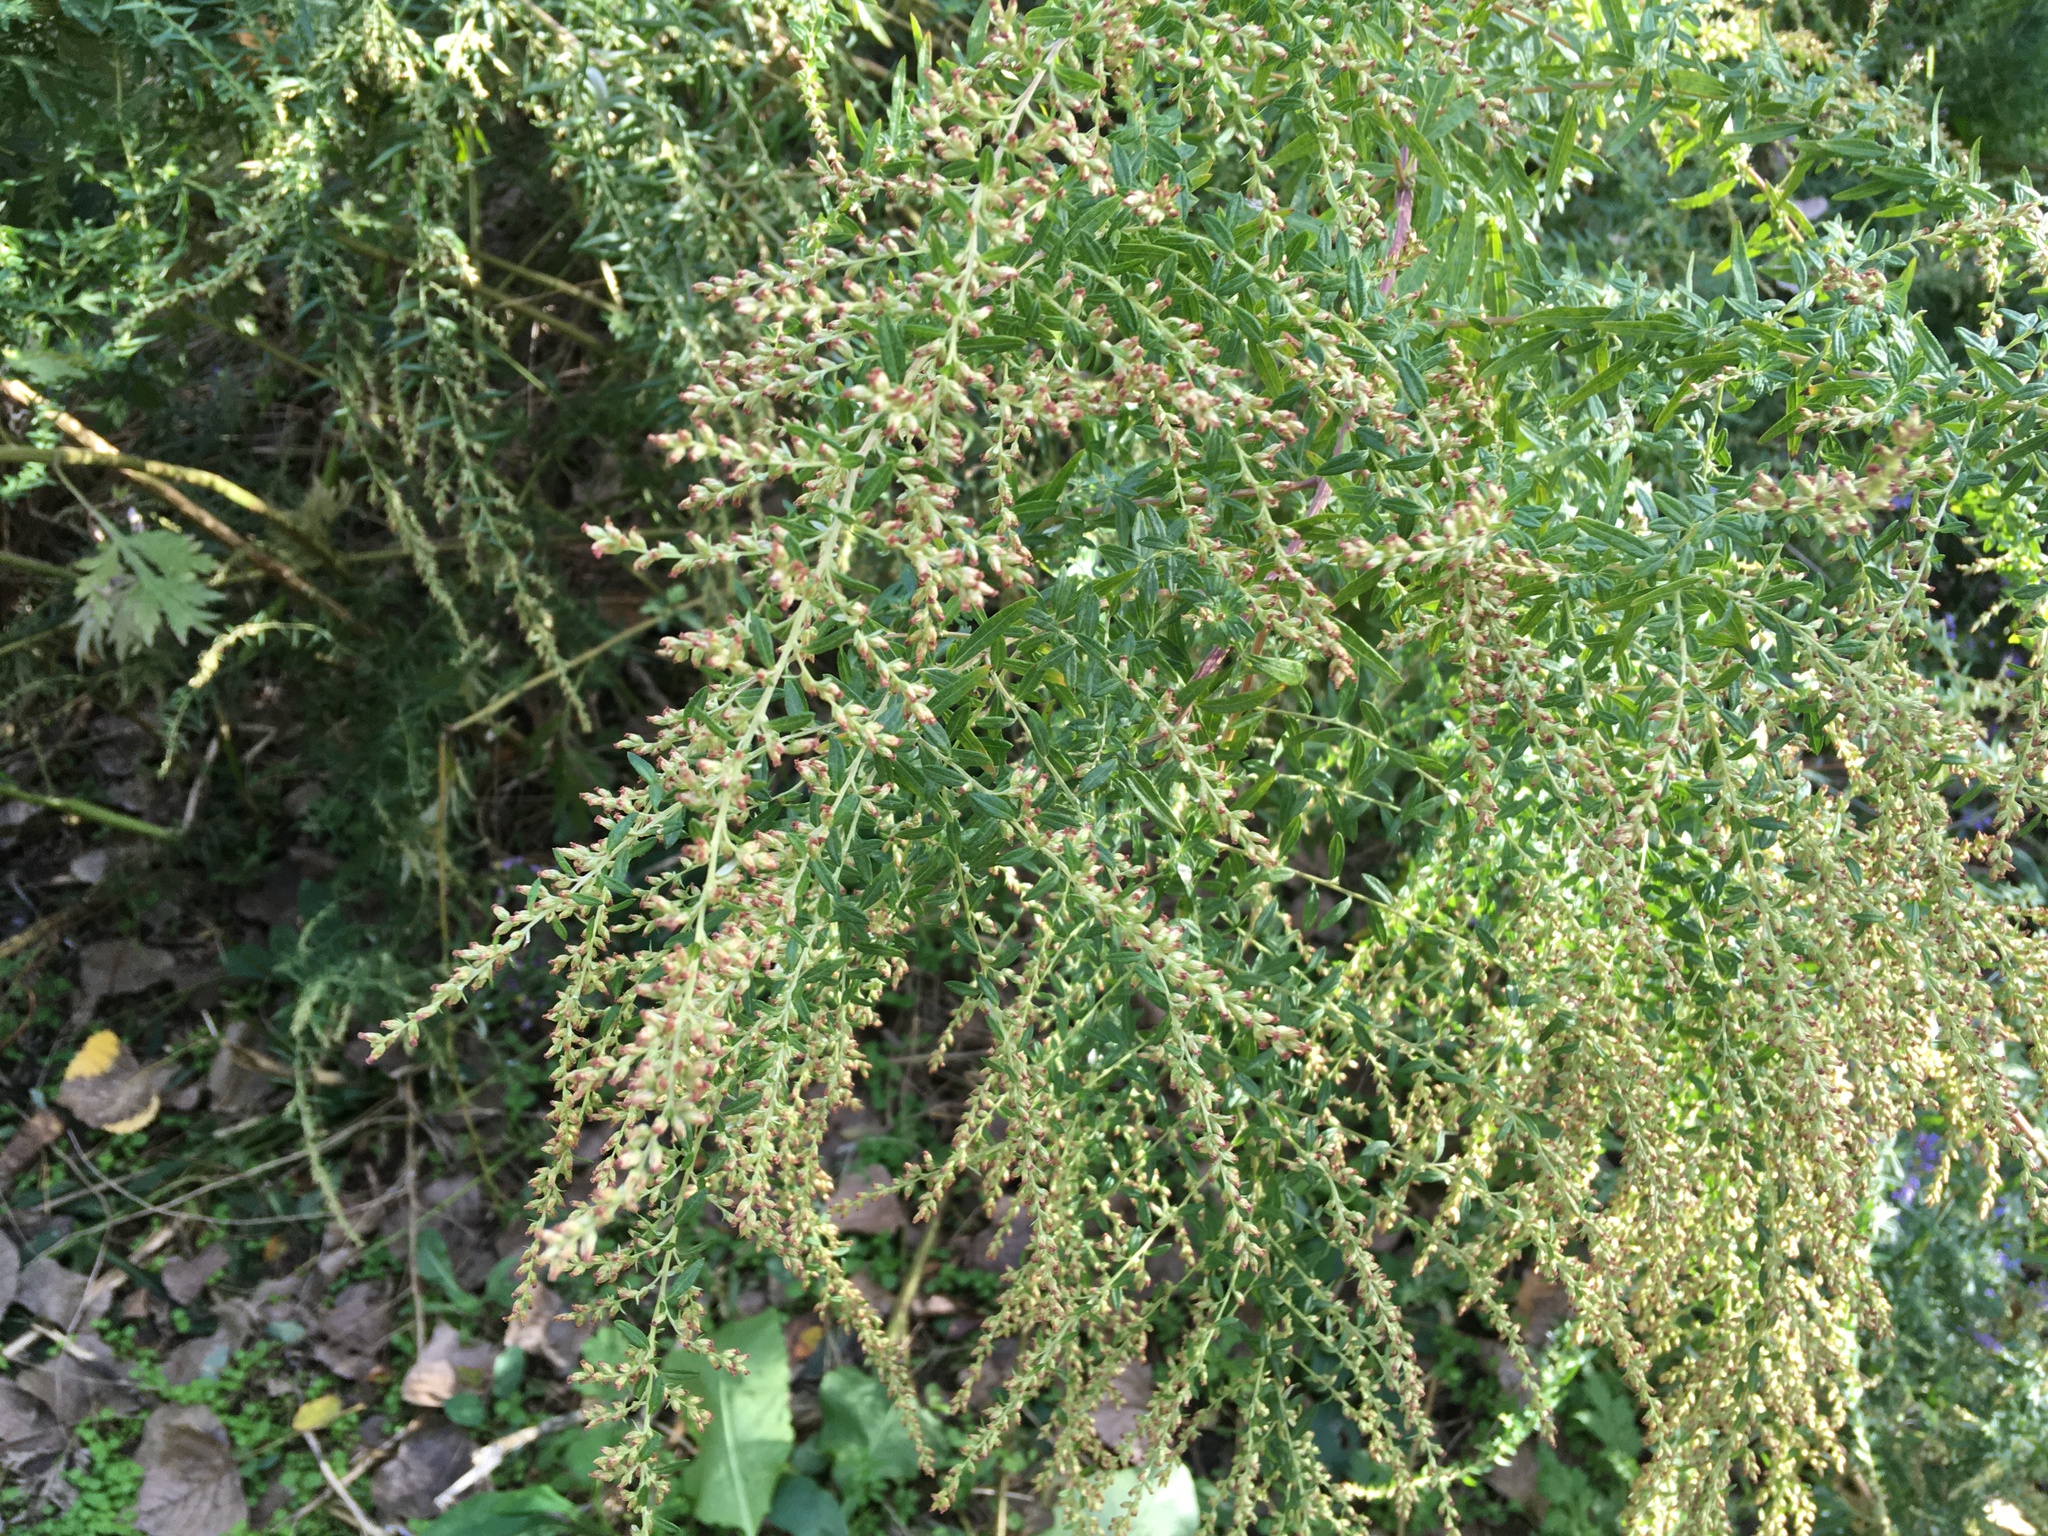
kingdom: Plantae
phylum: Tracheophyta
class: Magnoliopsida
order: Asterales
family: Asteraceae
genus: Artemisia
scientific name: Artemisia vulgaris
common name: Mugwort
